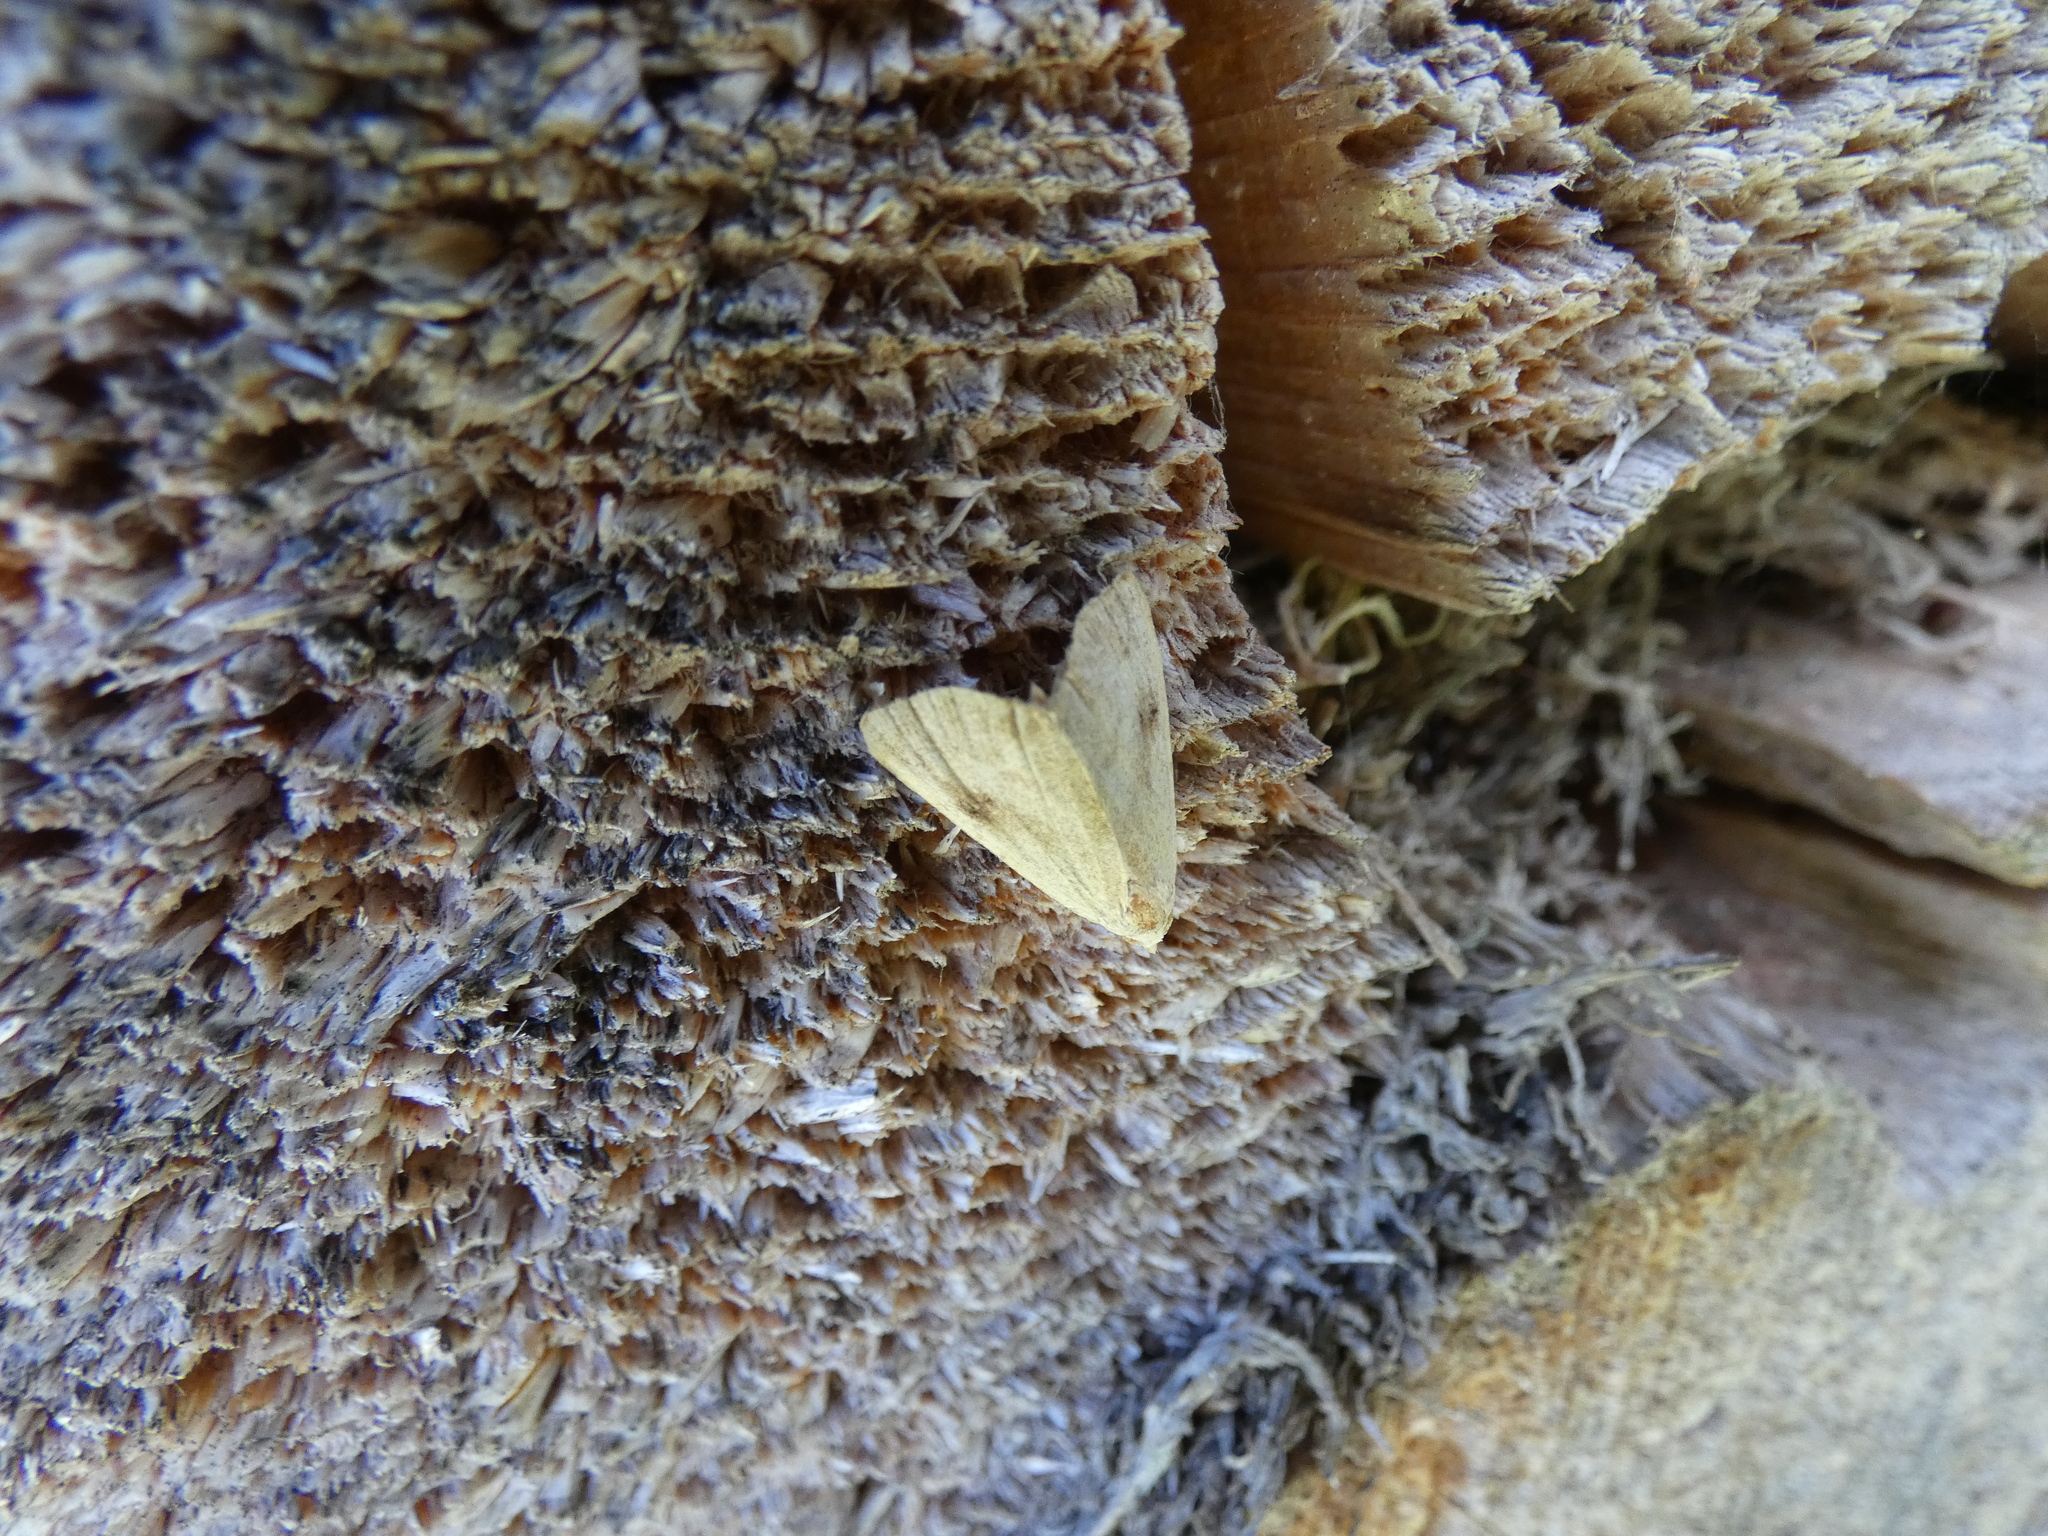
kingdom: Animalia
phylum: Arthropoda
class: Insecta
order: Lepidoptera
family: Erebidae
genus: Rivula
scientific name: Rivula sericealis
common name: Straw dot
